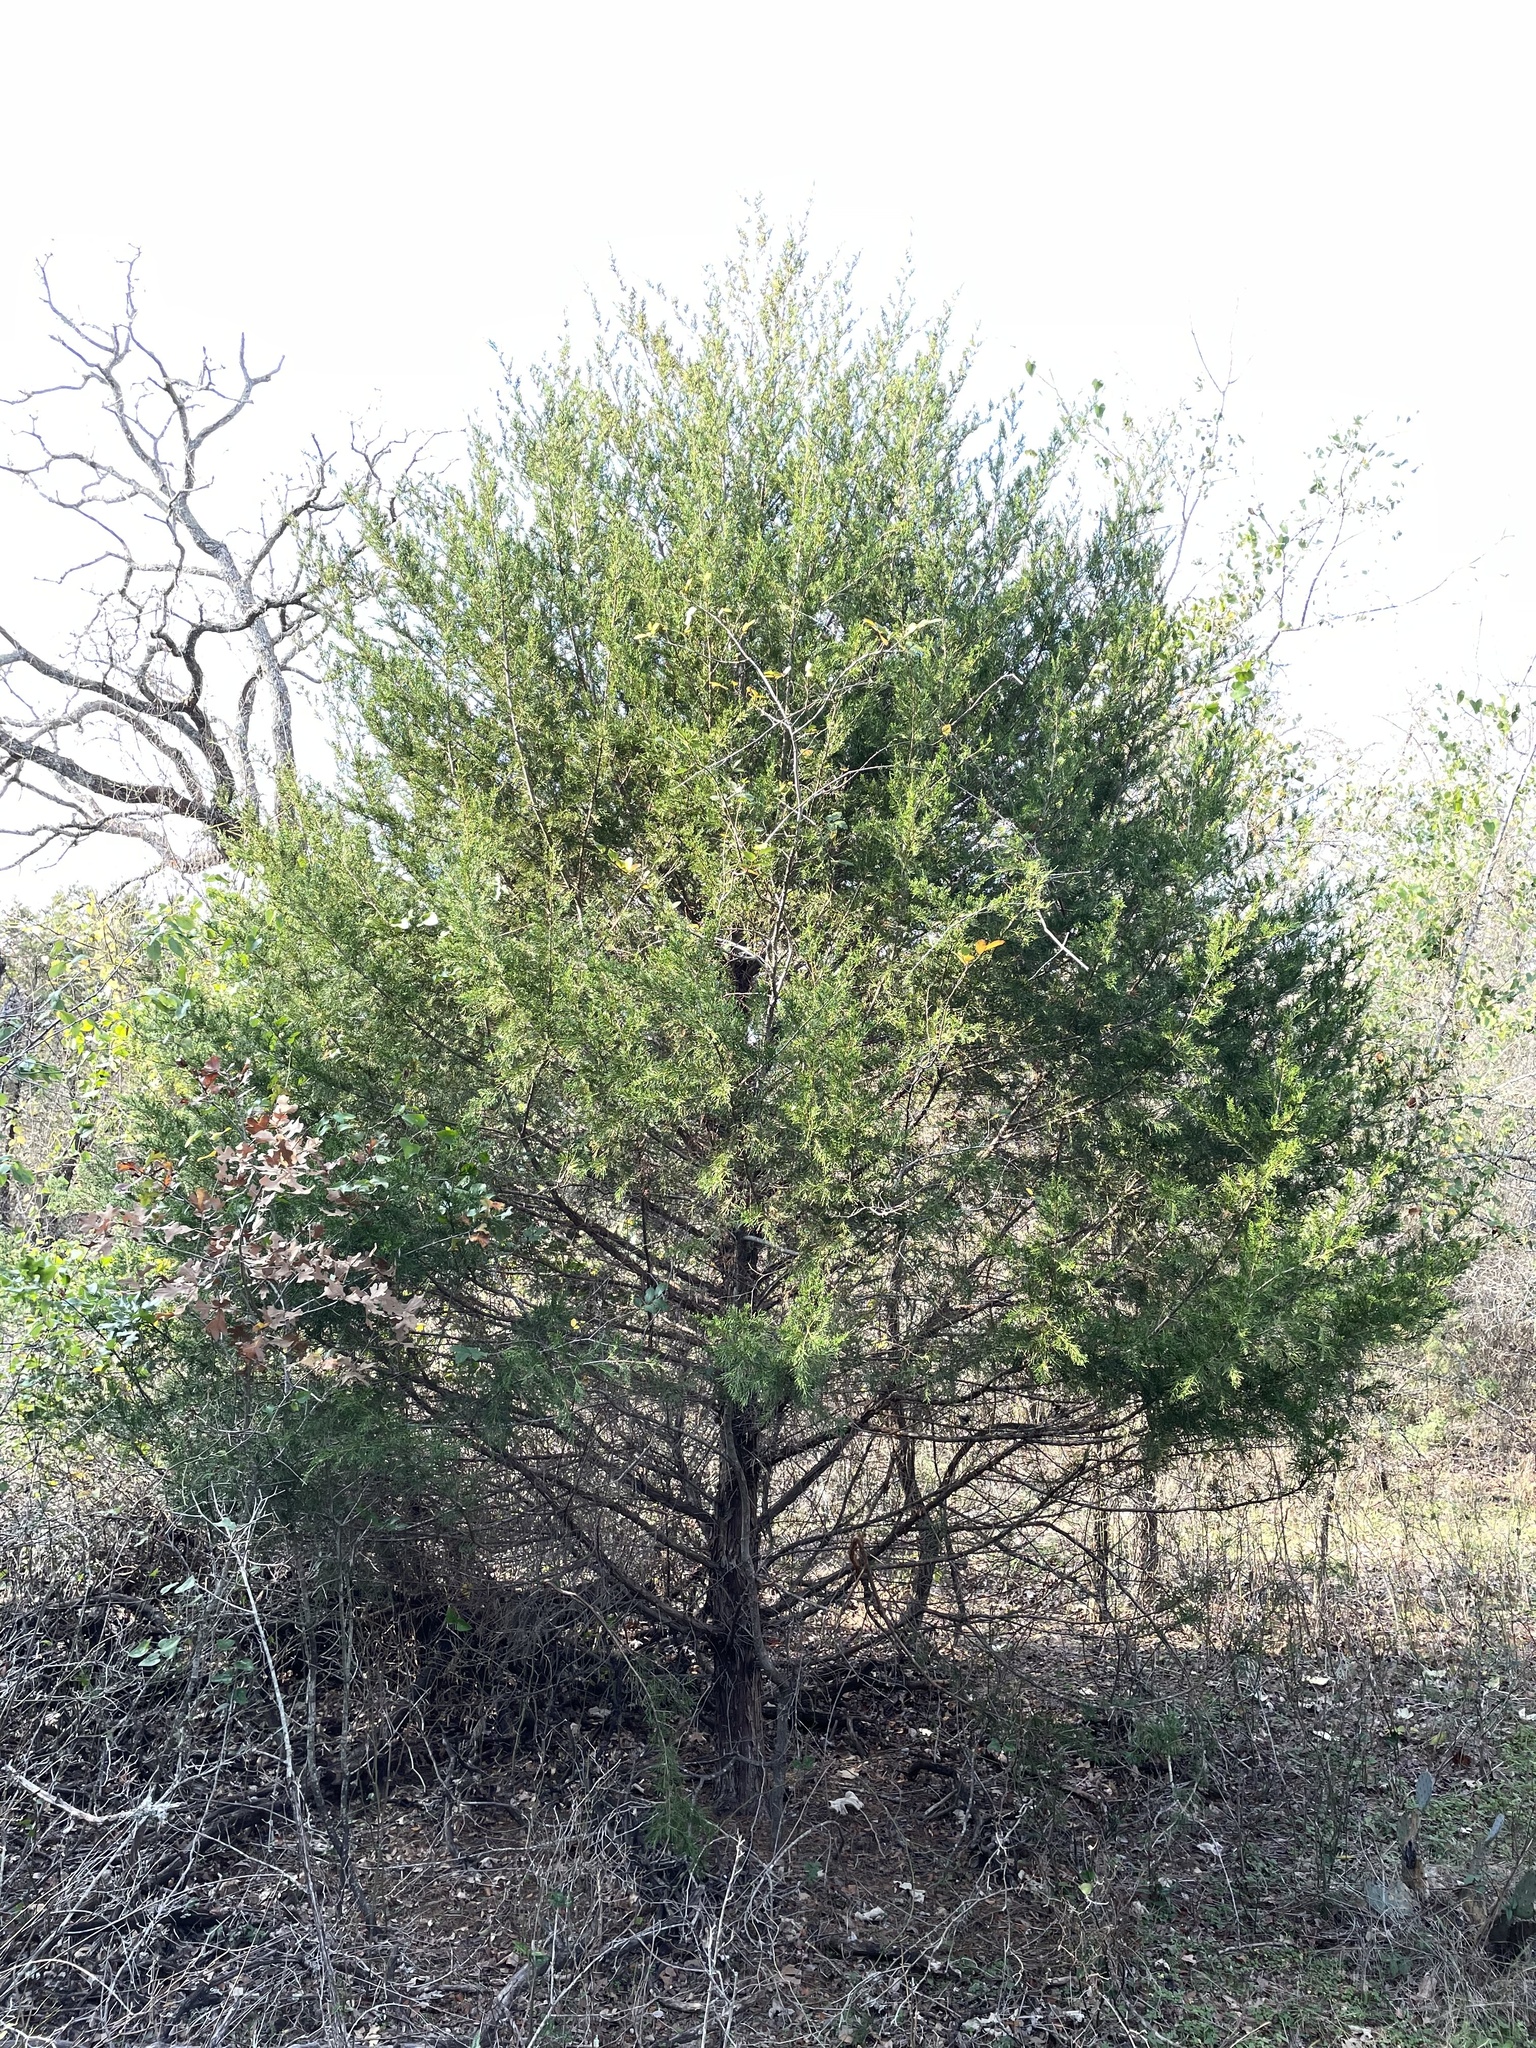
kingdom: Plantae
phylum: Tracheophyta
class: Pinopsida
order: Pinales
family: Cupressaceae
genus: Juniperus
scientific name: Juniperus virginiana
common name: Red juniper
